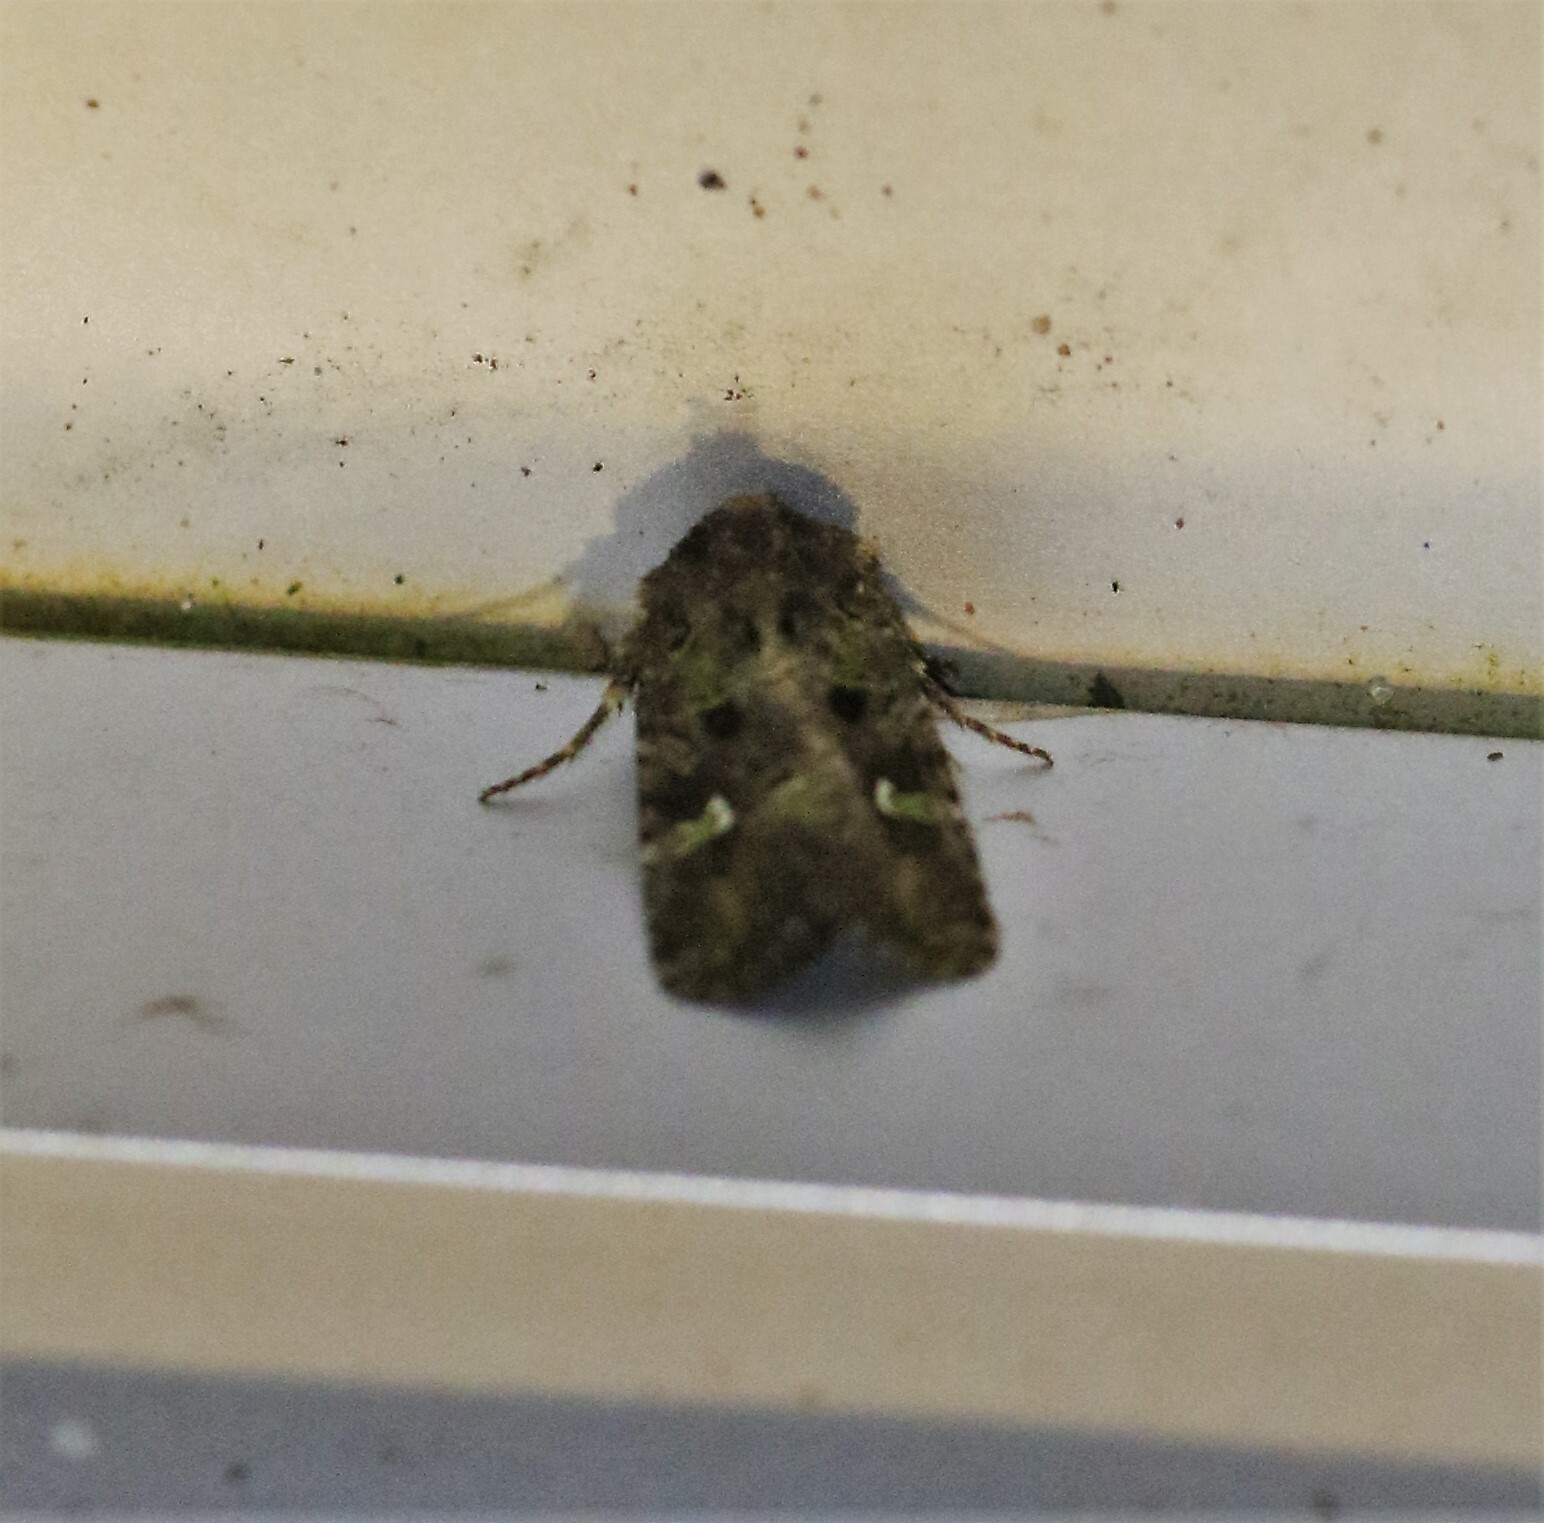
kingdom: Animalia
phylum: Arthropoda
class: Insecta
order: Lepidoptera
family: Noctuidae
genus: Lacinipolia
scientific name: Lacinipolia renigera
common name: Kidney-spotted minor
